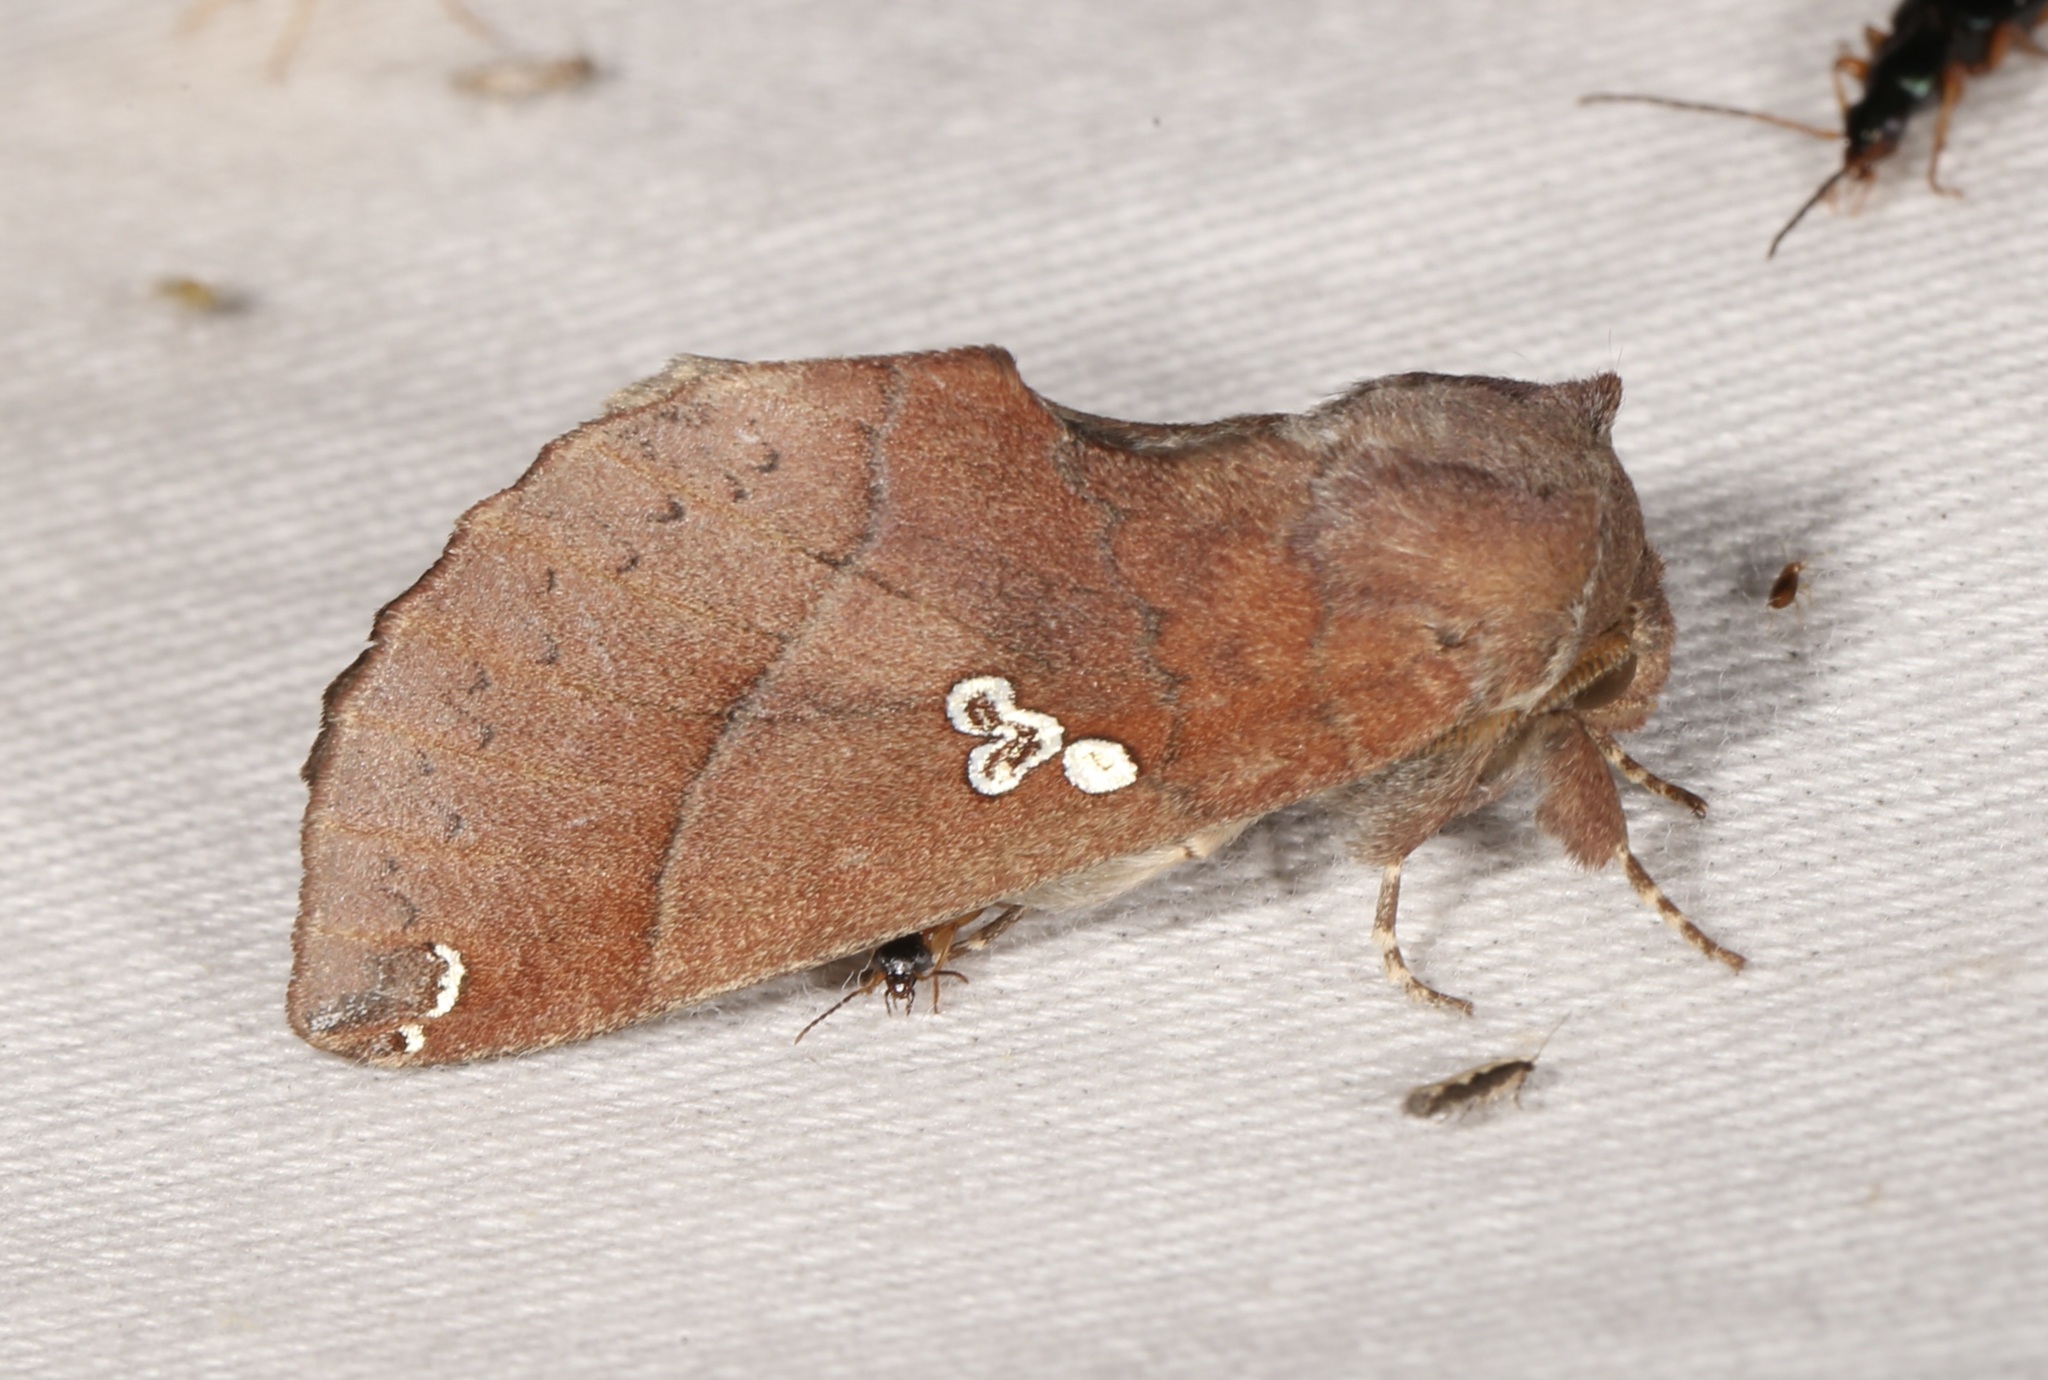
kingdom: Animalia
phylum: Arthropoda
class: Insecta
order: Lepidoptera
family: Notodontidae
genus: Pseudhapigia
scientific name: Pseudhapigia brunnea
